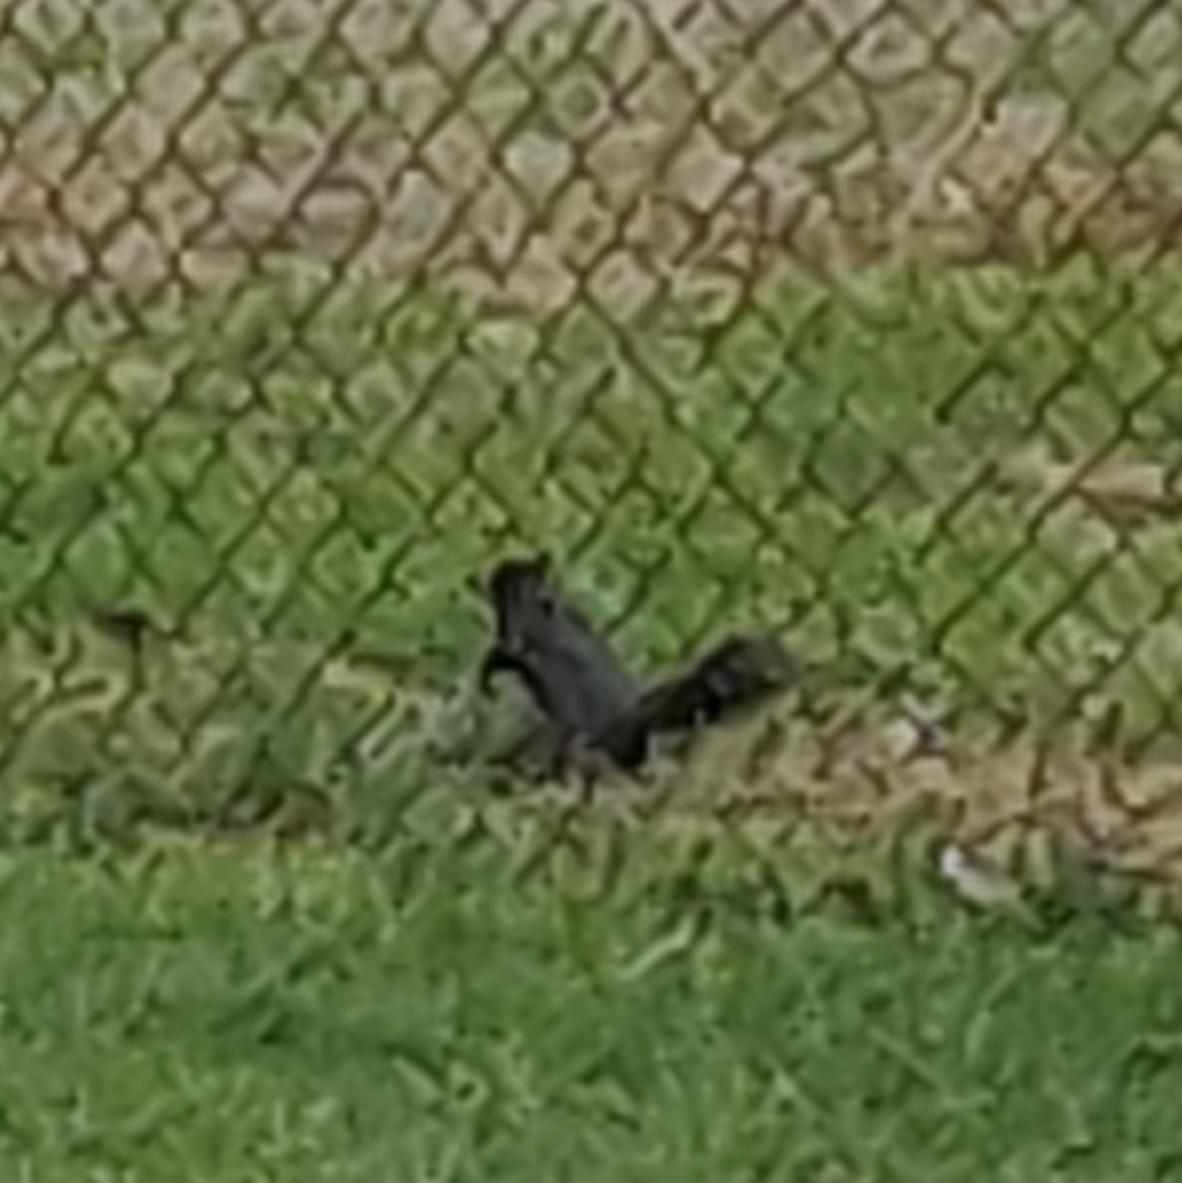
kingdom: Animalia
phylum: Chordata
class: Mammalia
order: Rodentia
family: Sciuridae
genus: Sciurus
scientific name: Sciurus carolinensis
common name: Eastern gray squirrel
